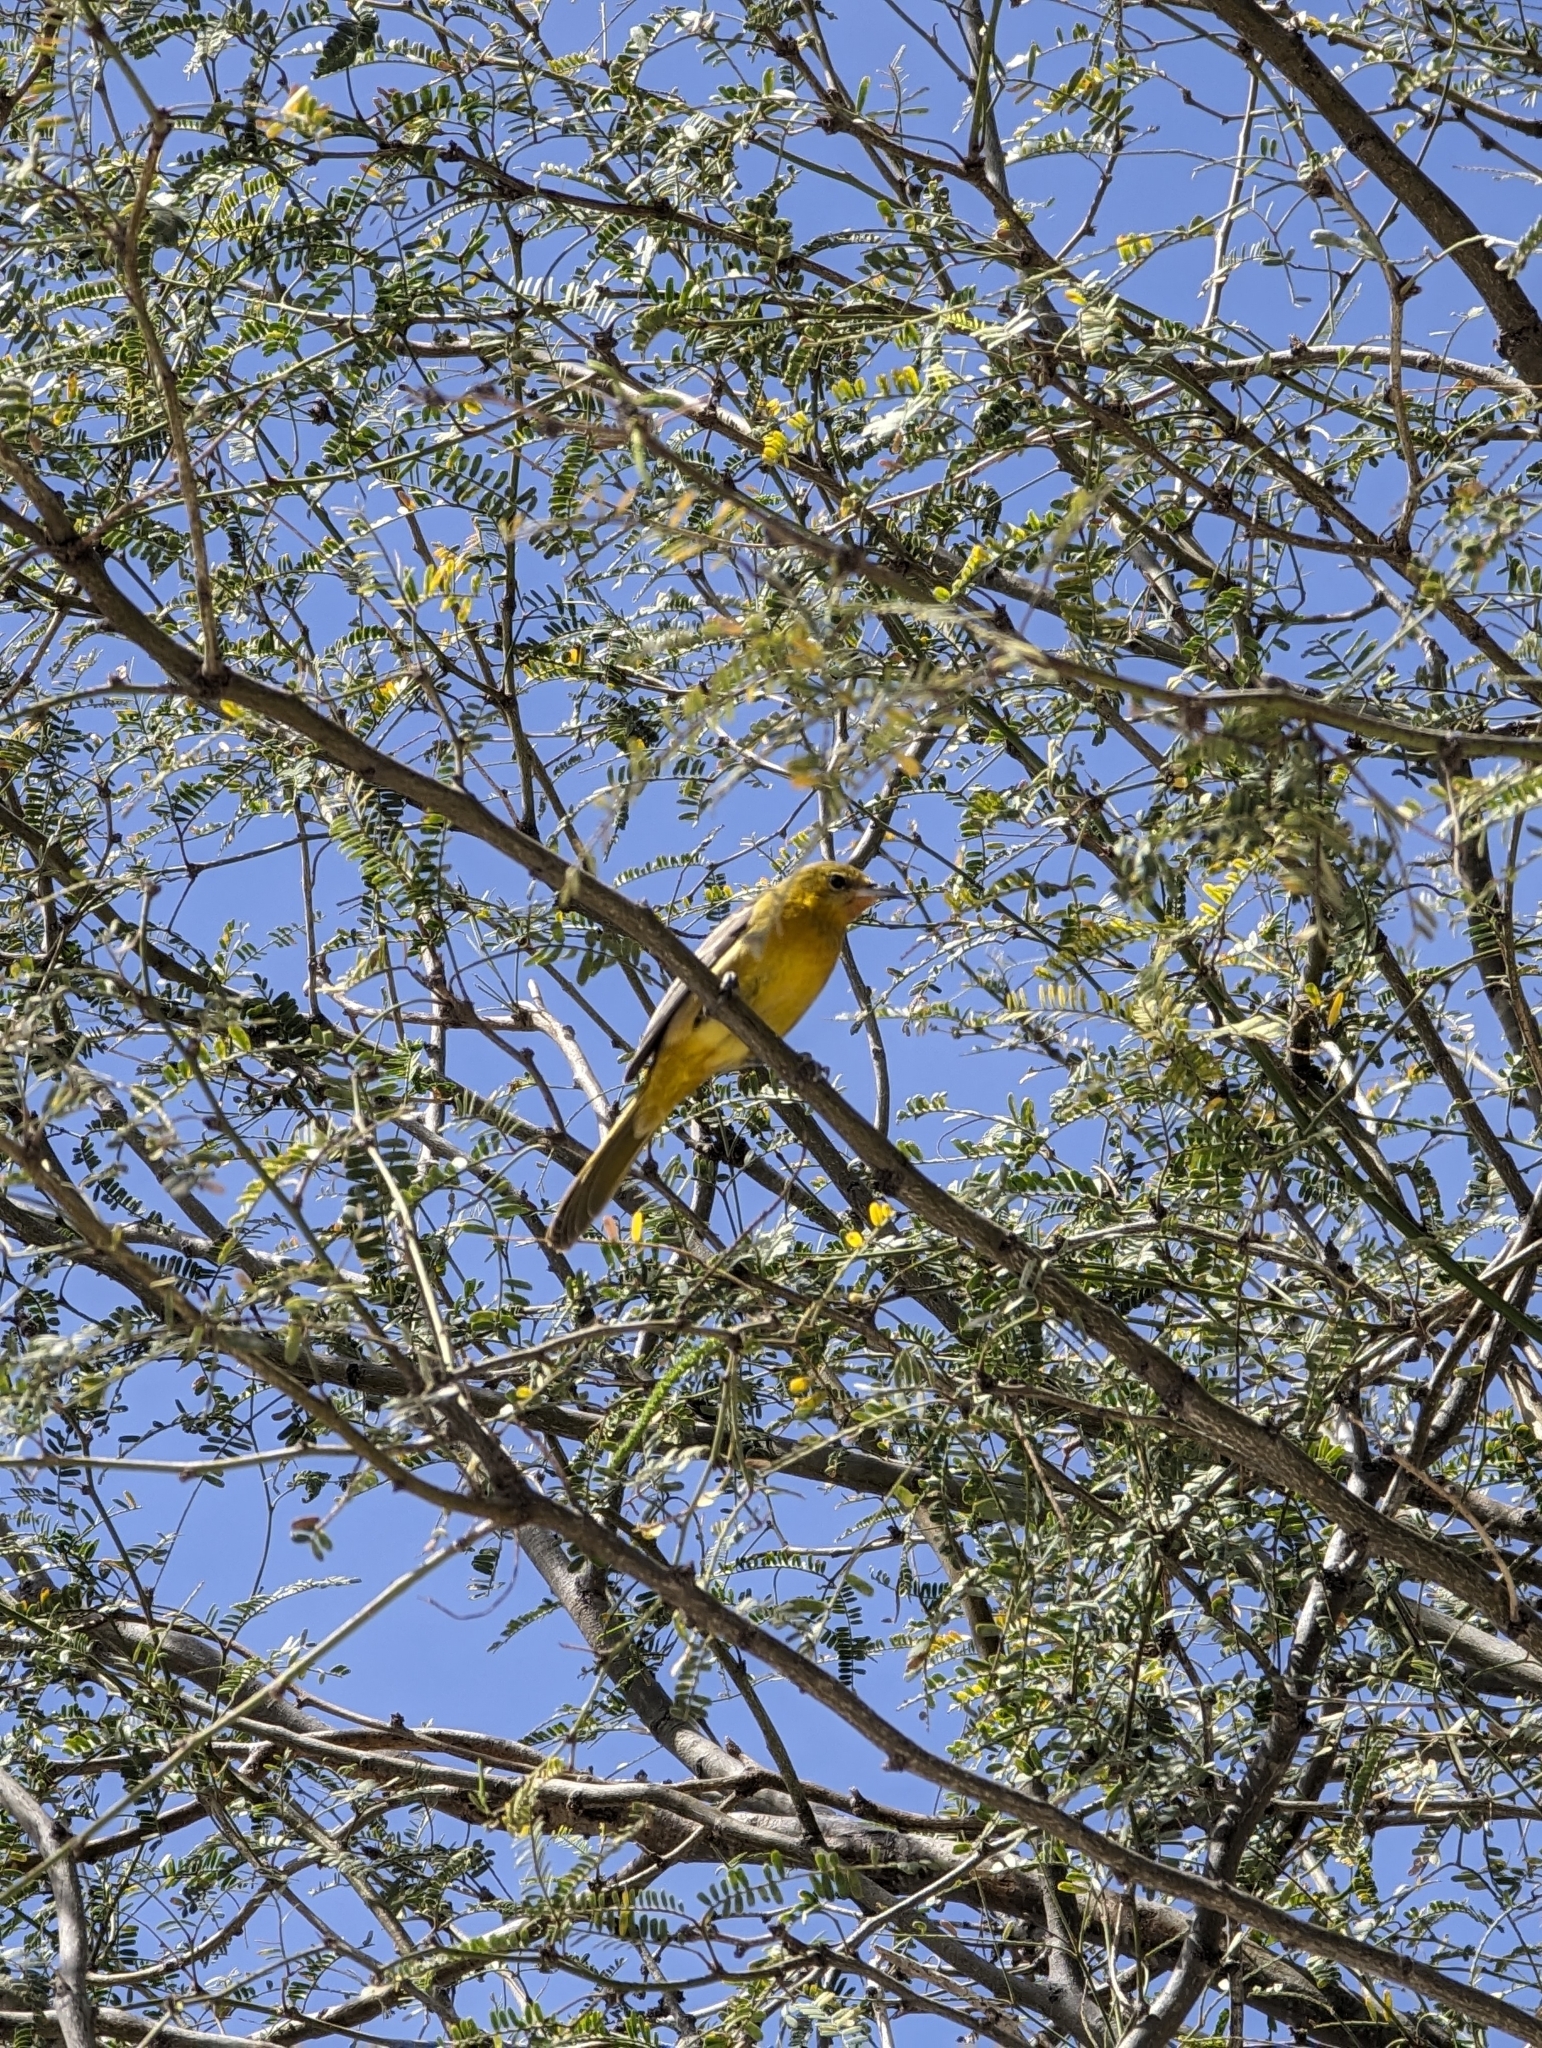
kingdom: Animalia
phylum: Chordata
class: Aves
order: Passeriformes
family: Icteridae
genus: Icterus
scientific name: Icterus cucullatus
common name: Hooded oriole
